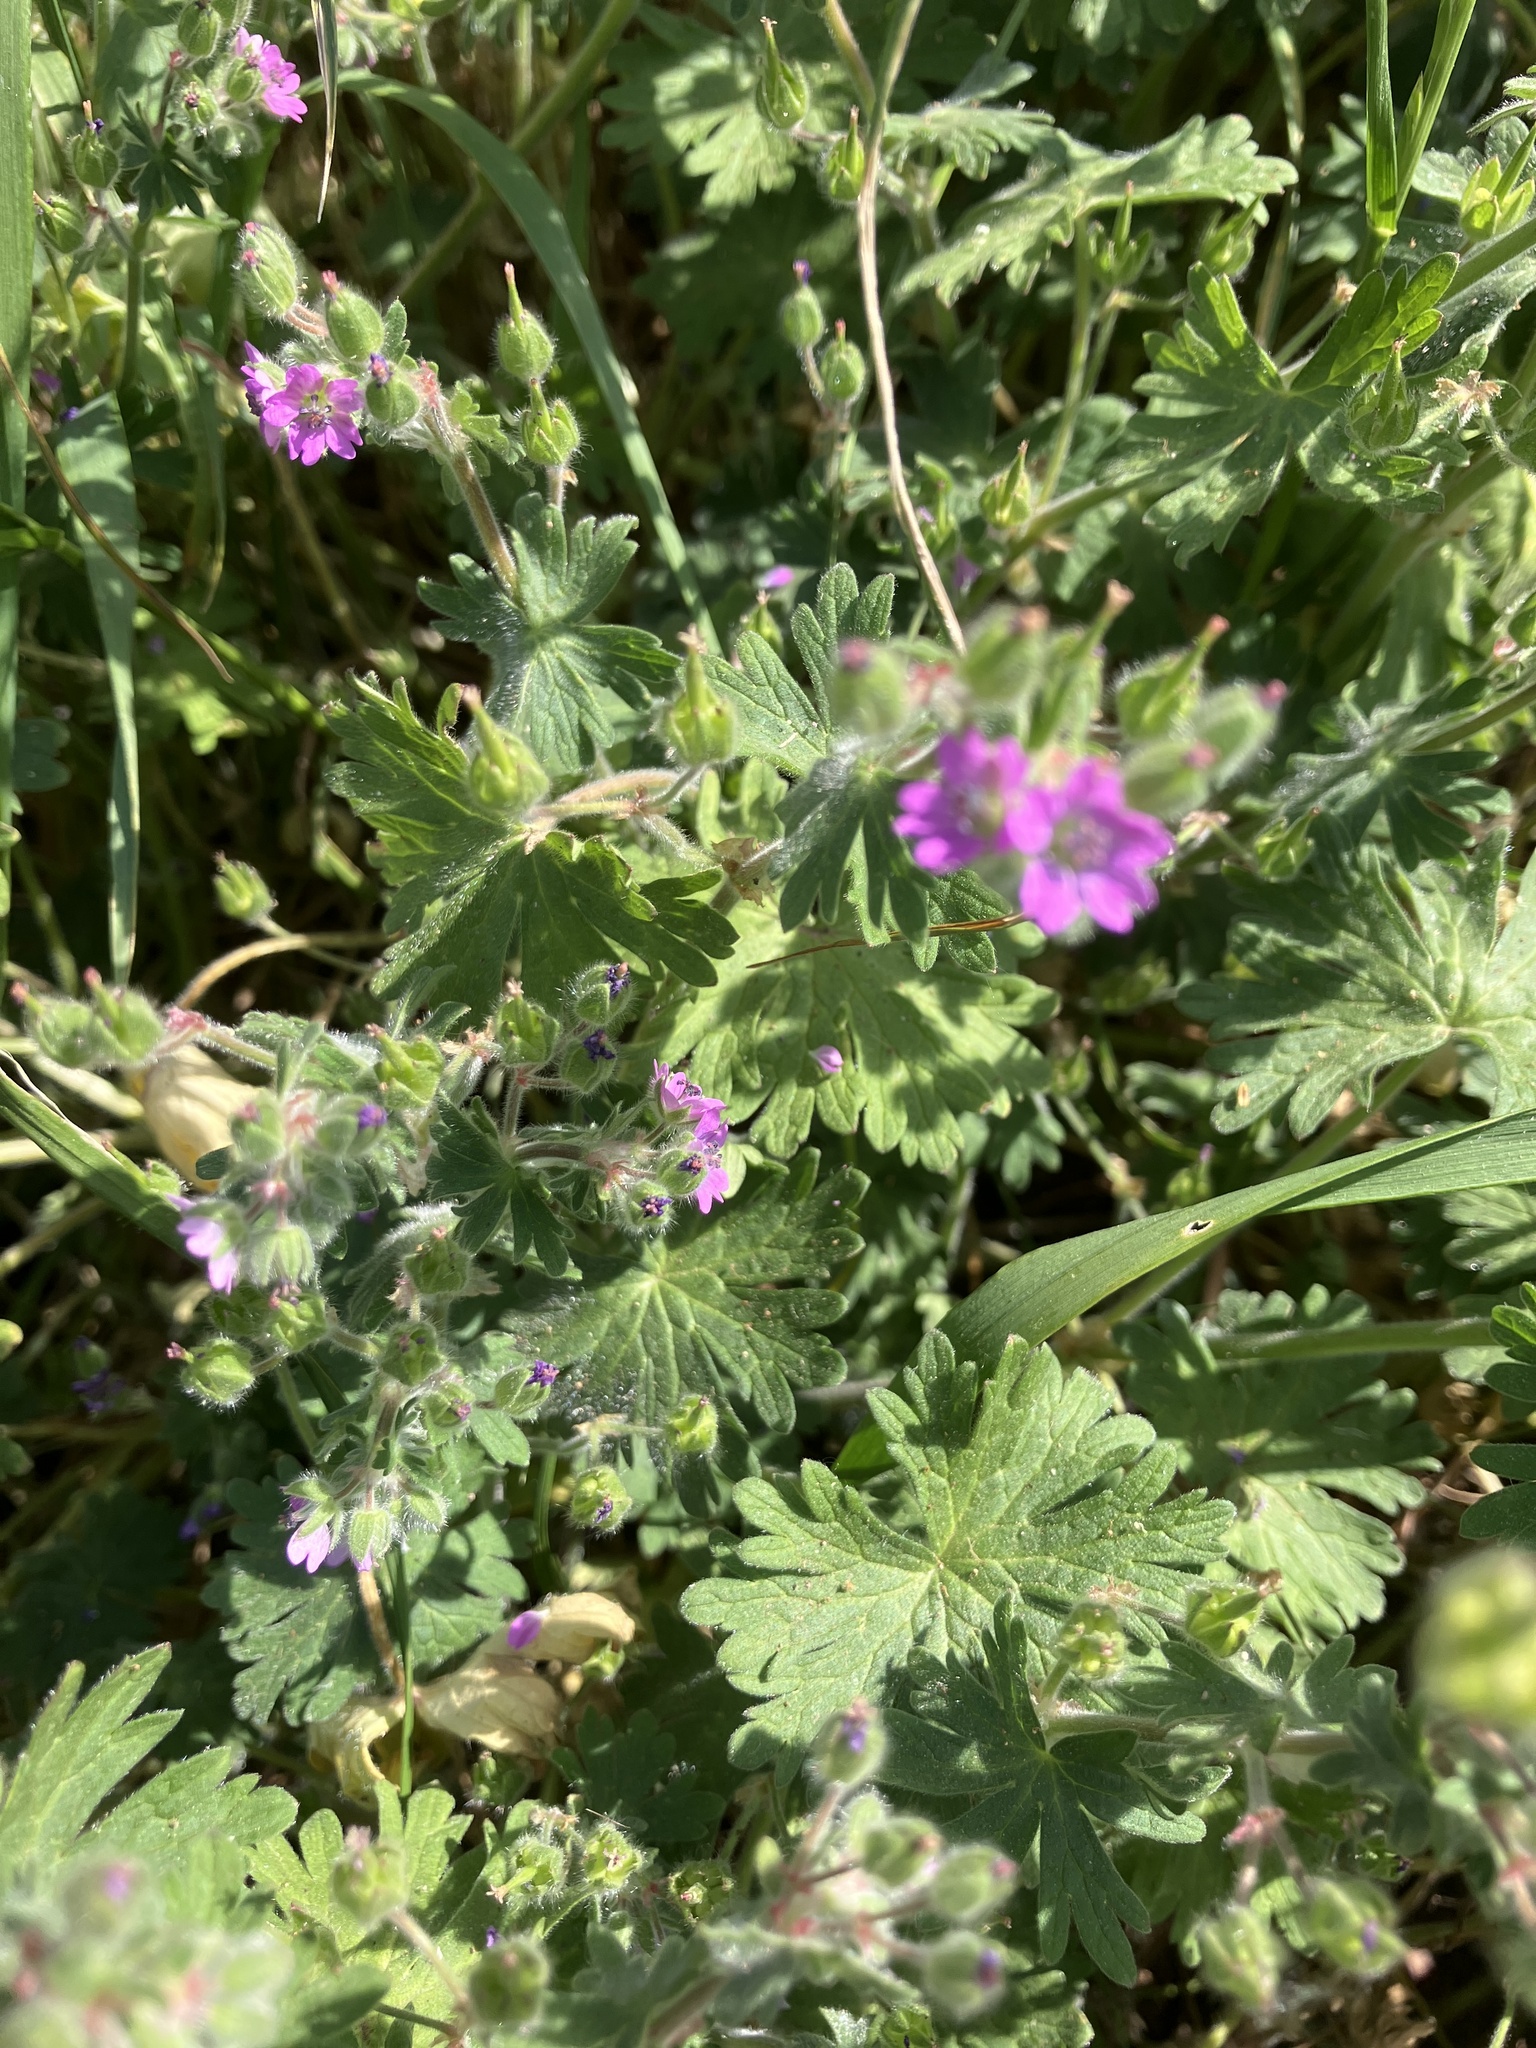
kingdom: Plantae
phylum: Tracheophyta
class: Magnoliopsida
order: Geraniales
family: Geraniaceae
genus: Geranium
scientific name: Geranium molle
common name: Dove's-foot crane's-bill
